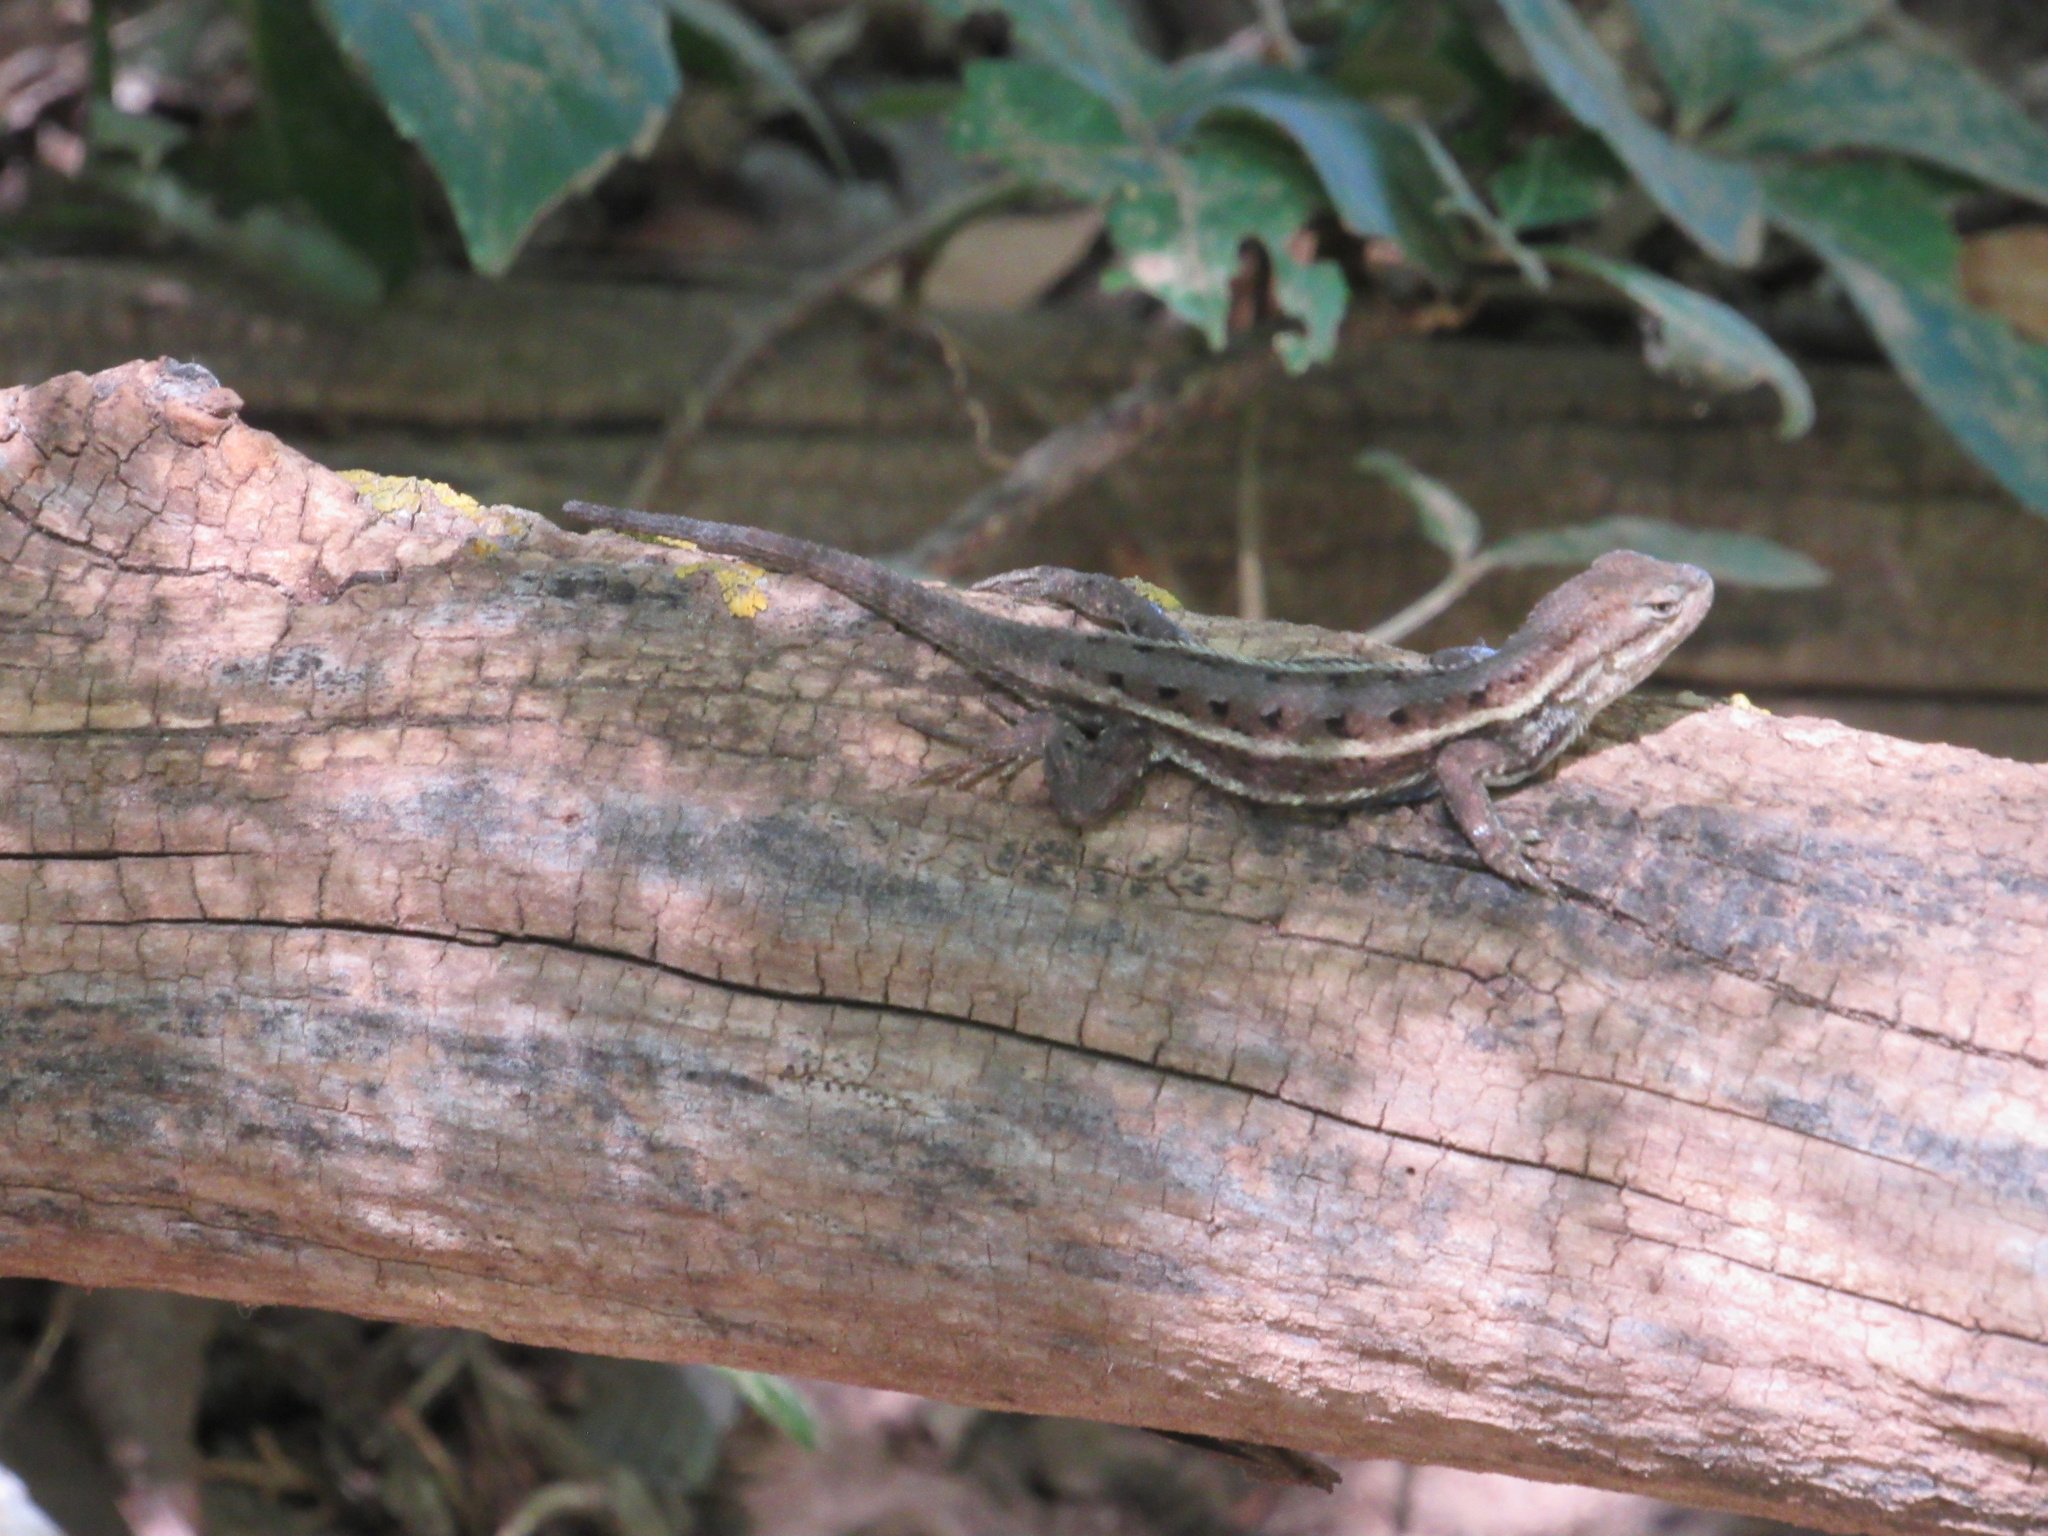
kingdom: Animalia
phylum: Chordata
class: Squamata
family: Phrynosomatidae
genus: Sceloporus
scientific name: Sceloporus consobrinus
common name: Southern prairie lizard
